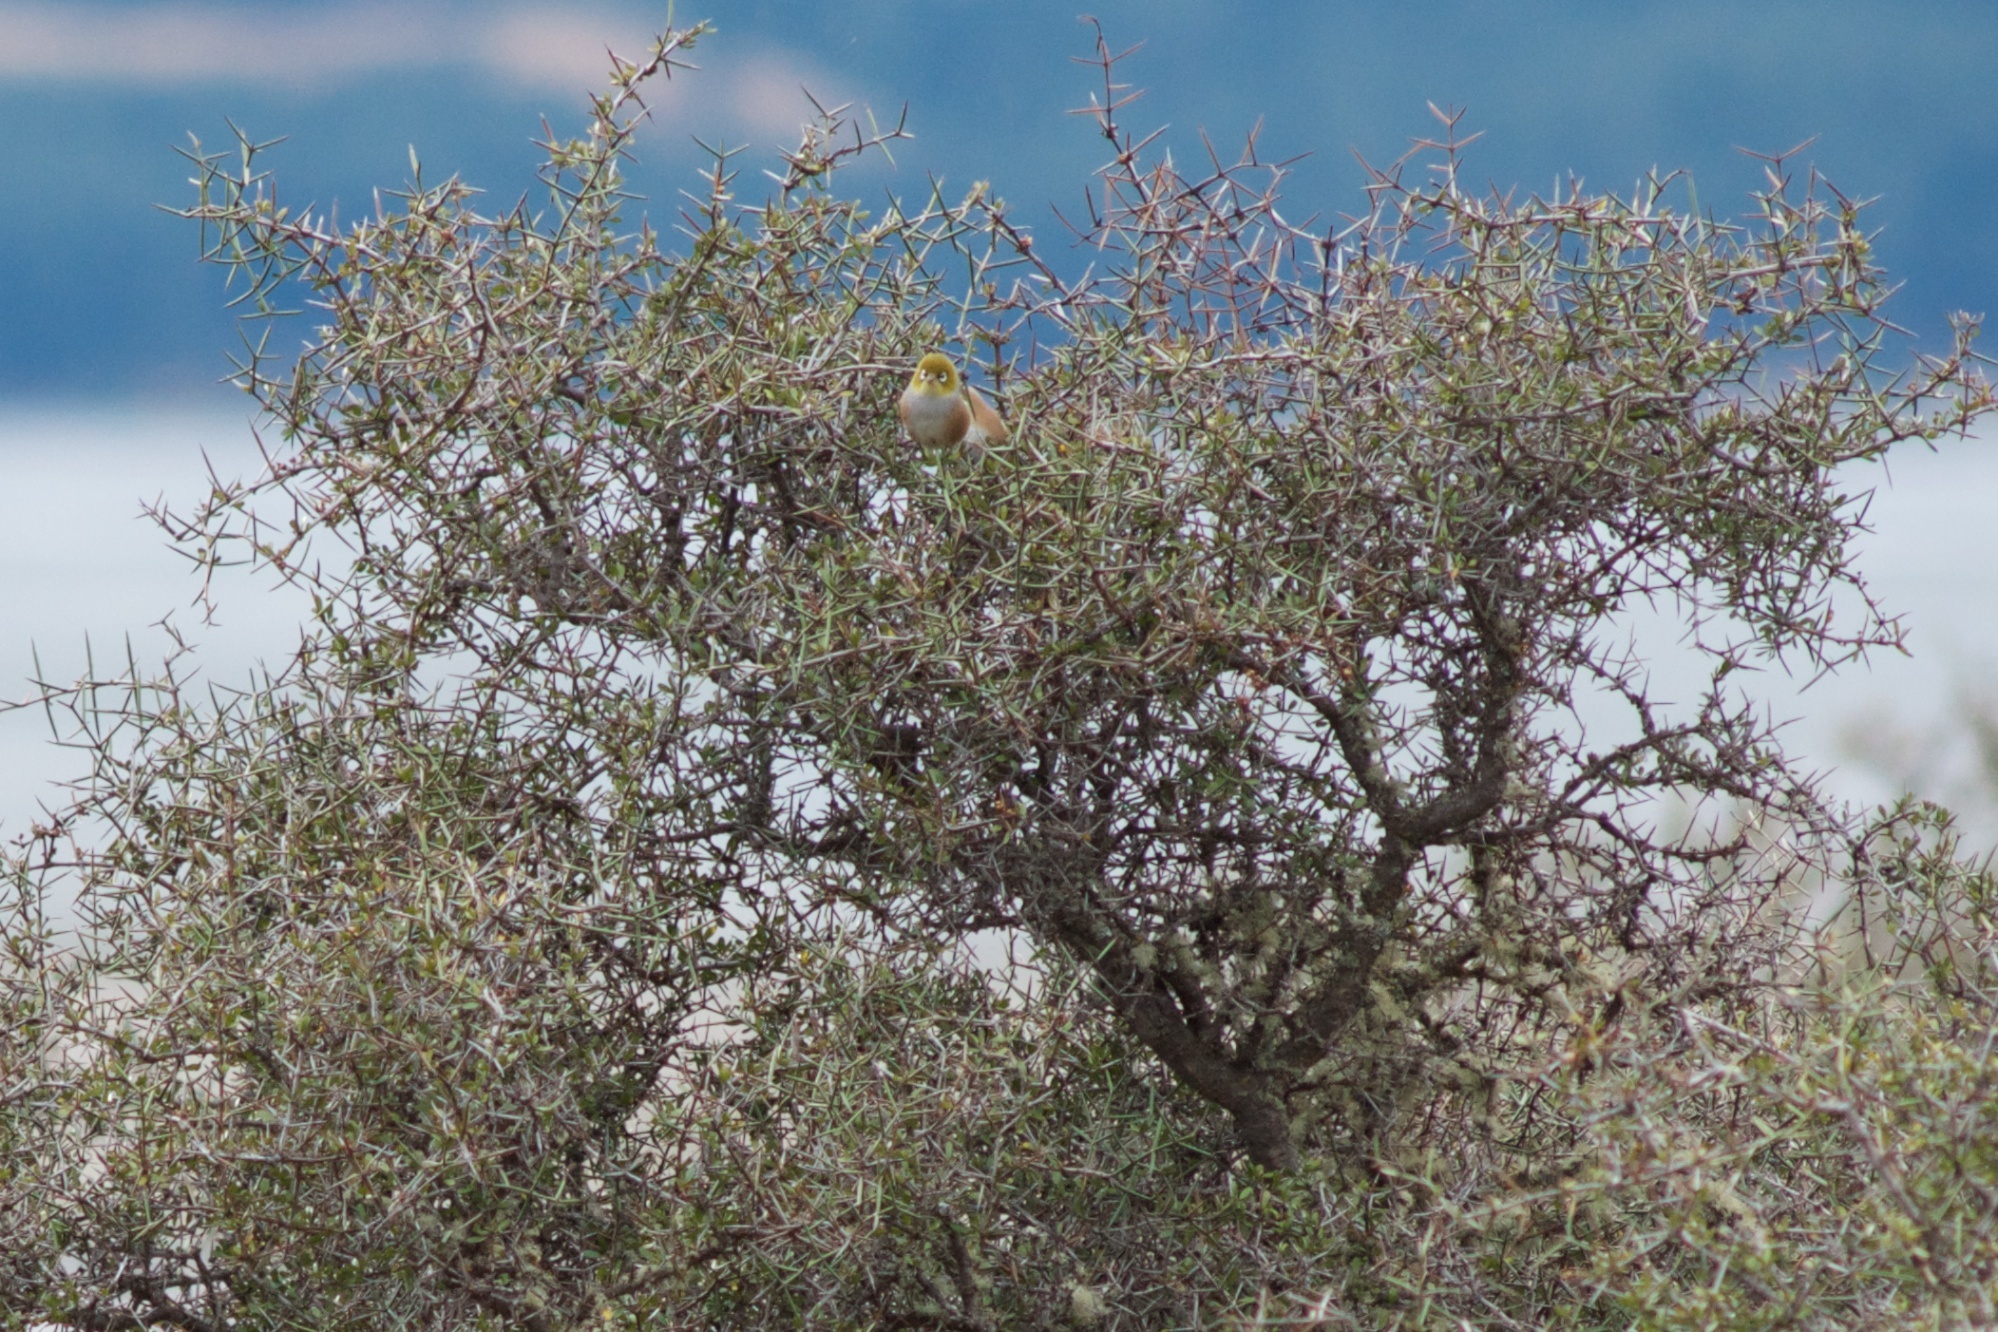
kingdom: Animalia
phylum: Chordata
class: Aves
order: Passeriformes
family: Zosteropidae
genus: Zosterops
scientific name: Zosterops lateralis
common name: Silvereye
